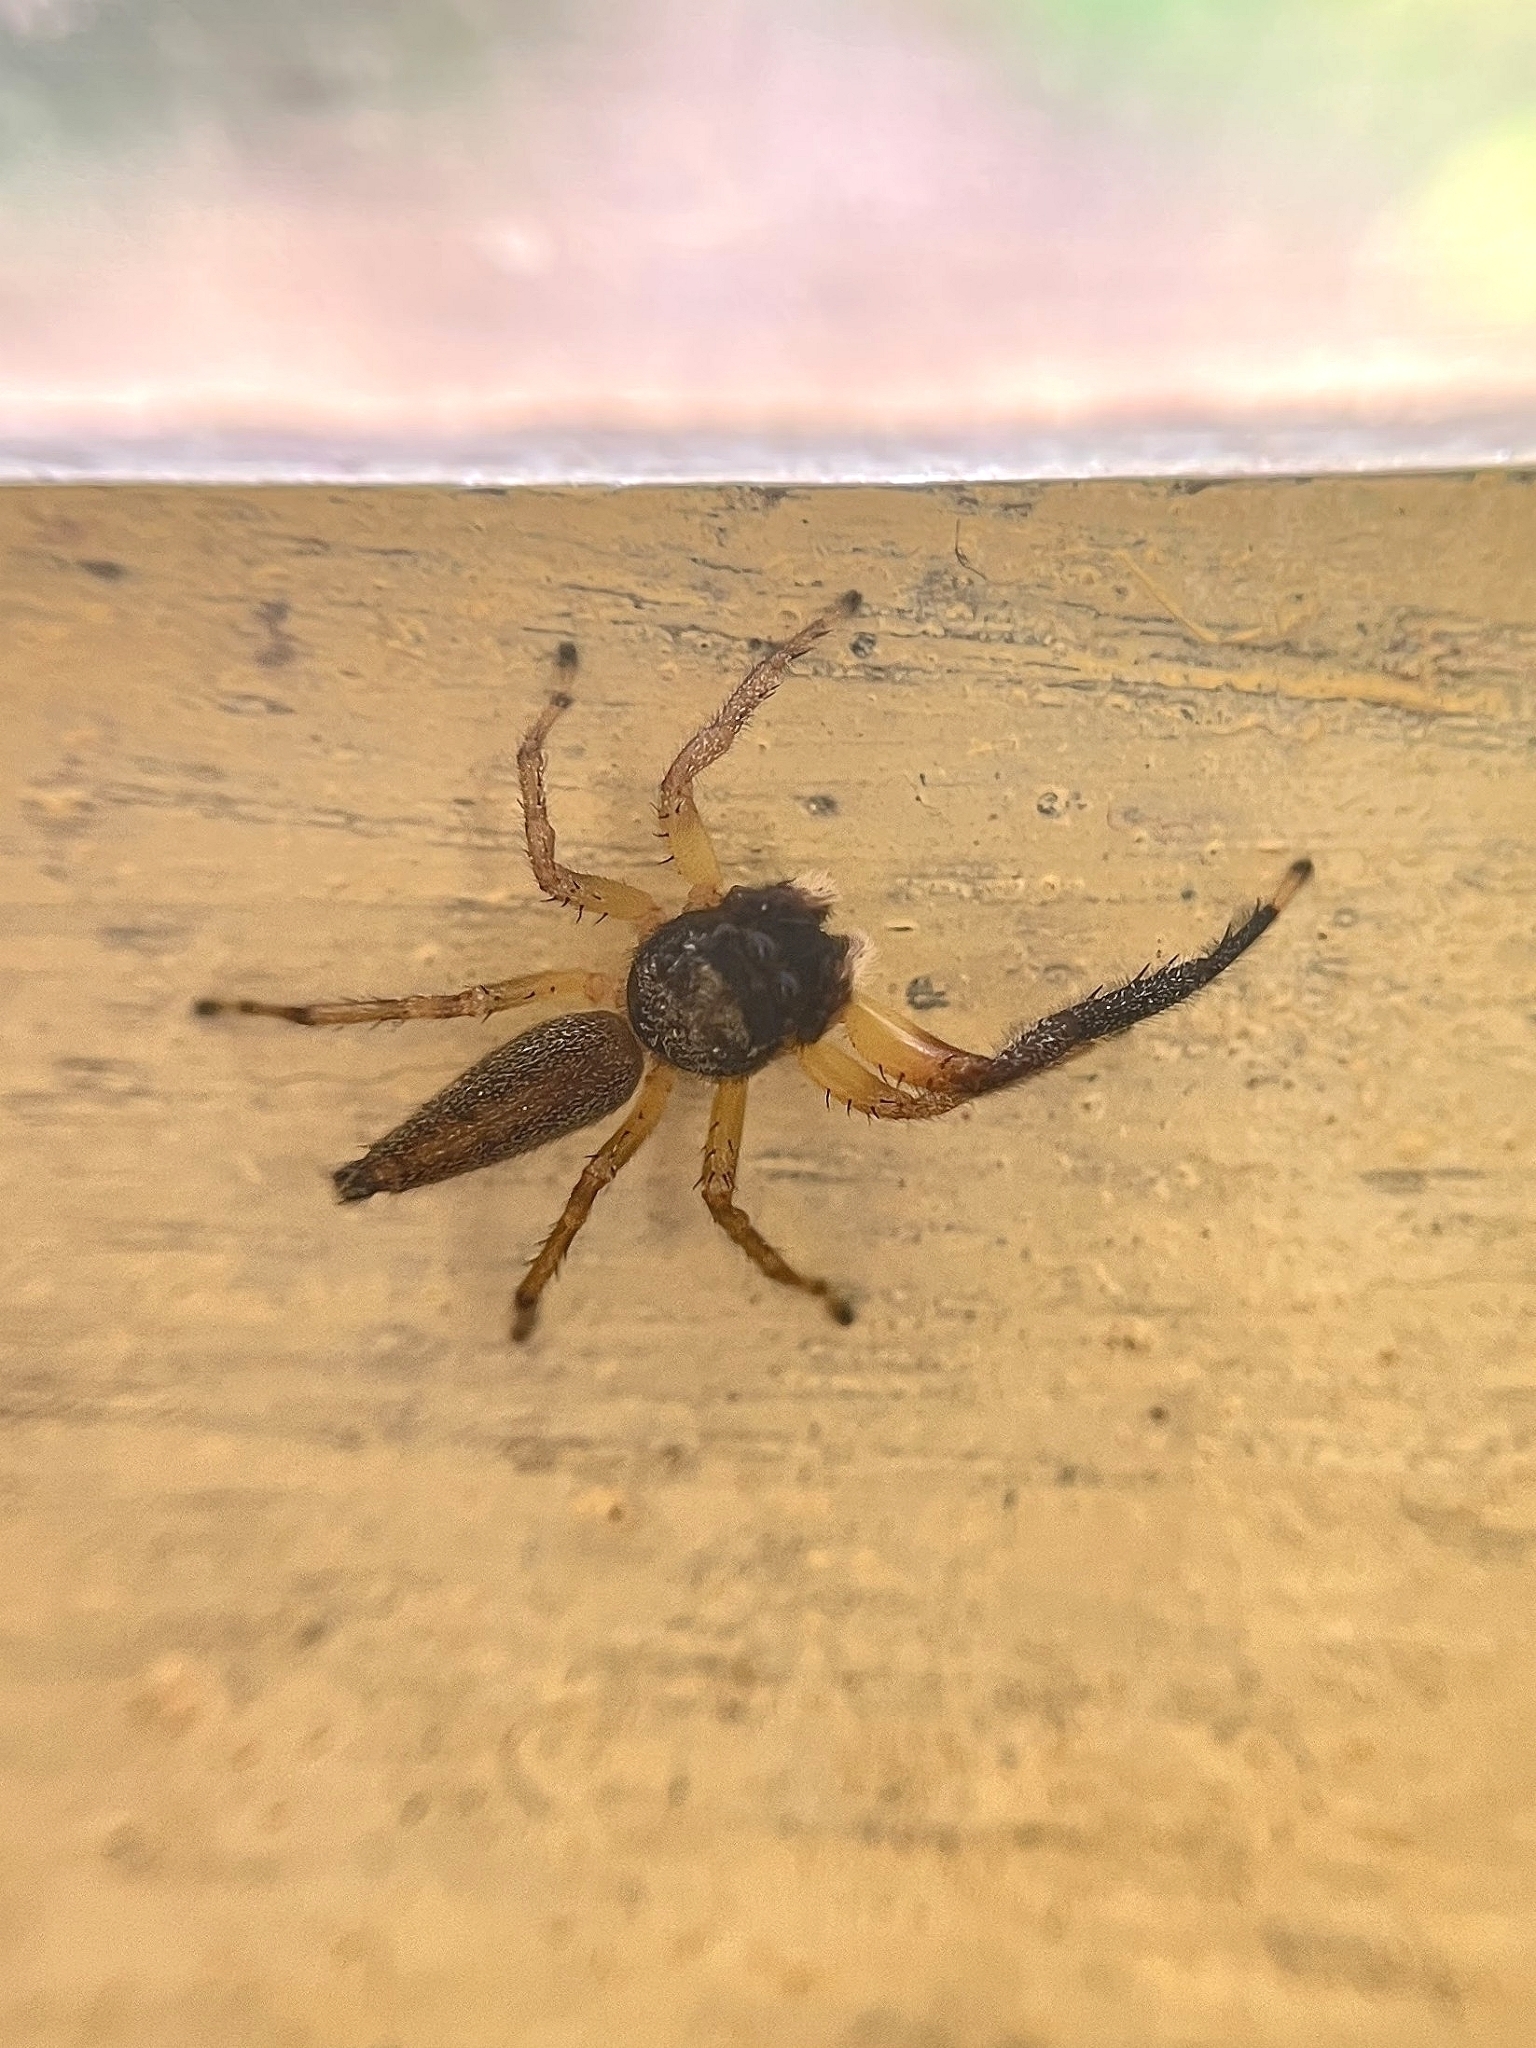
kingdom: Animalia
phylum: Arthropoda
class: Arachnida
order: Araneae
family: Salticidae
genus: Maripanthus
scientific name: Maripanthus jubatus
